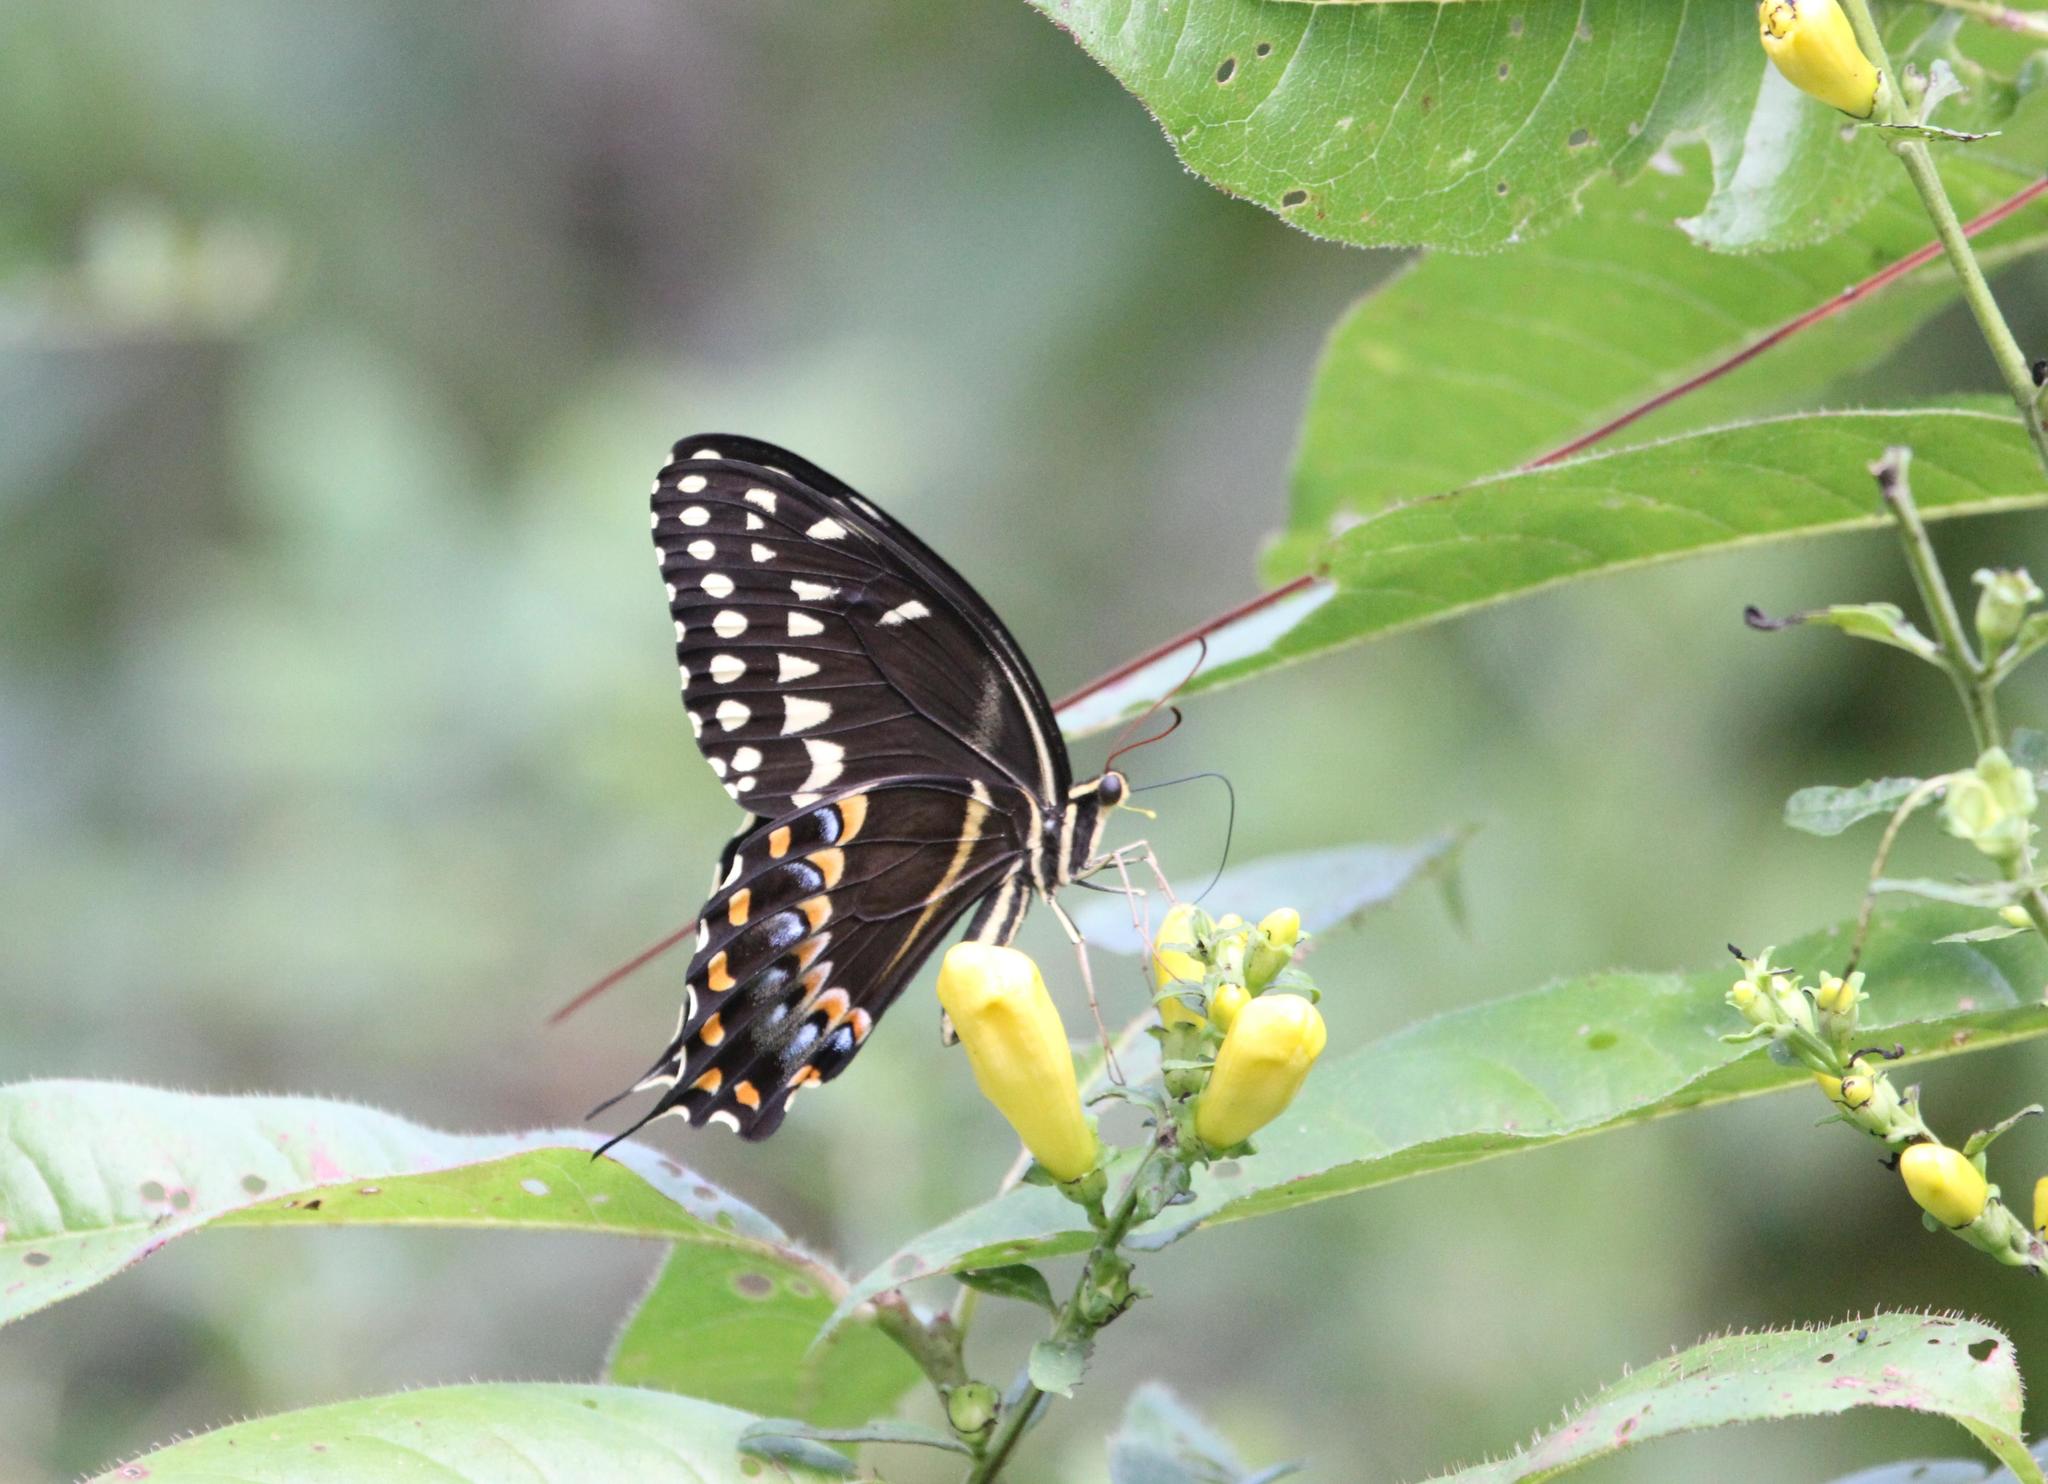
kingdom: Animalia
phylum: Arthropoda
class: Insecta
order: Lepidoptera
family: Papilionidae
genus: Papilio
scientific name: Papilio palamedes
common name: Palamedes swallowtail
